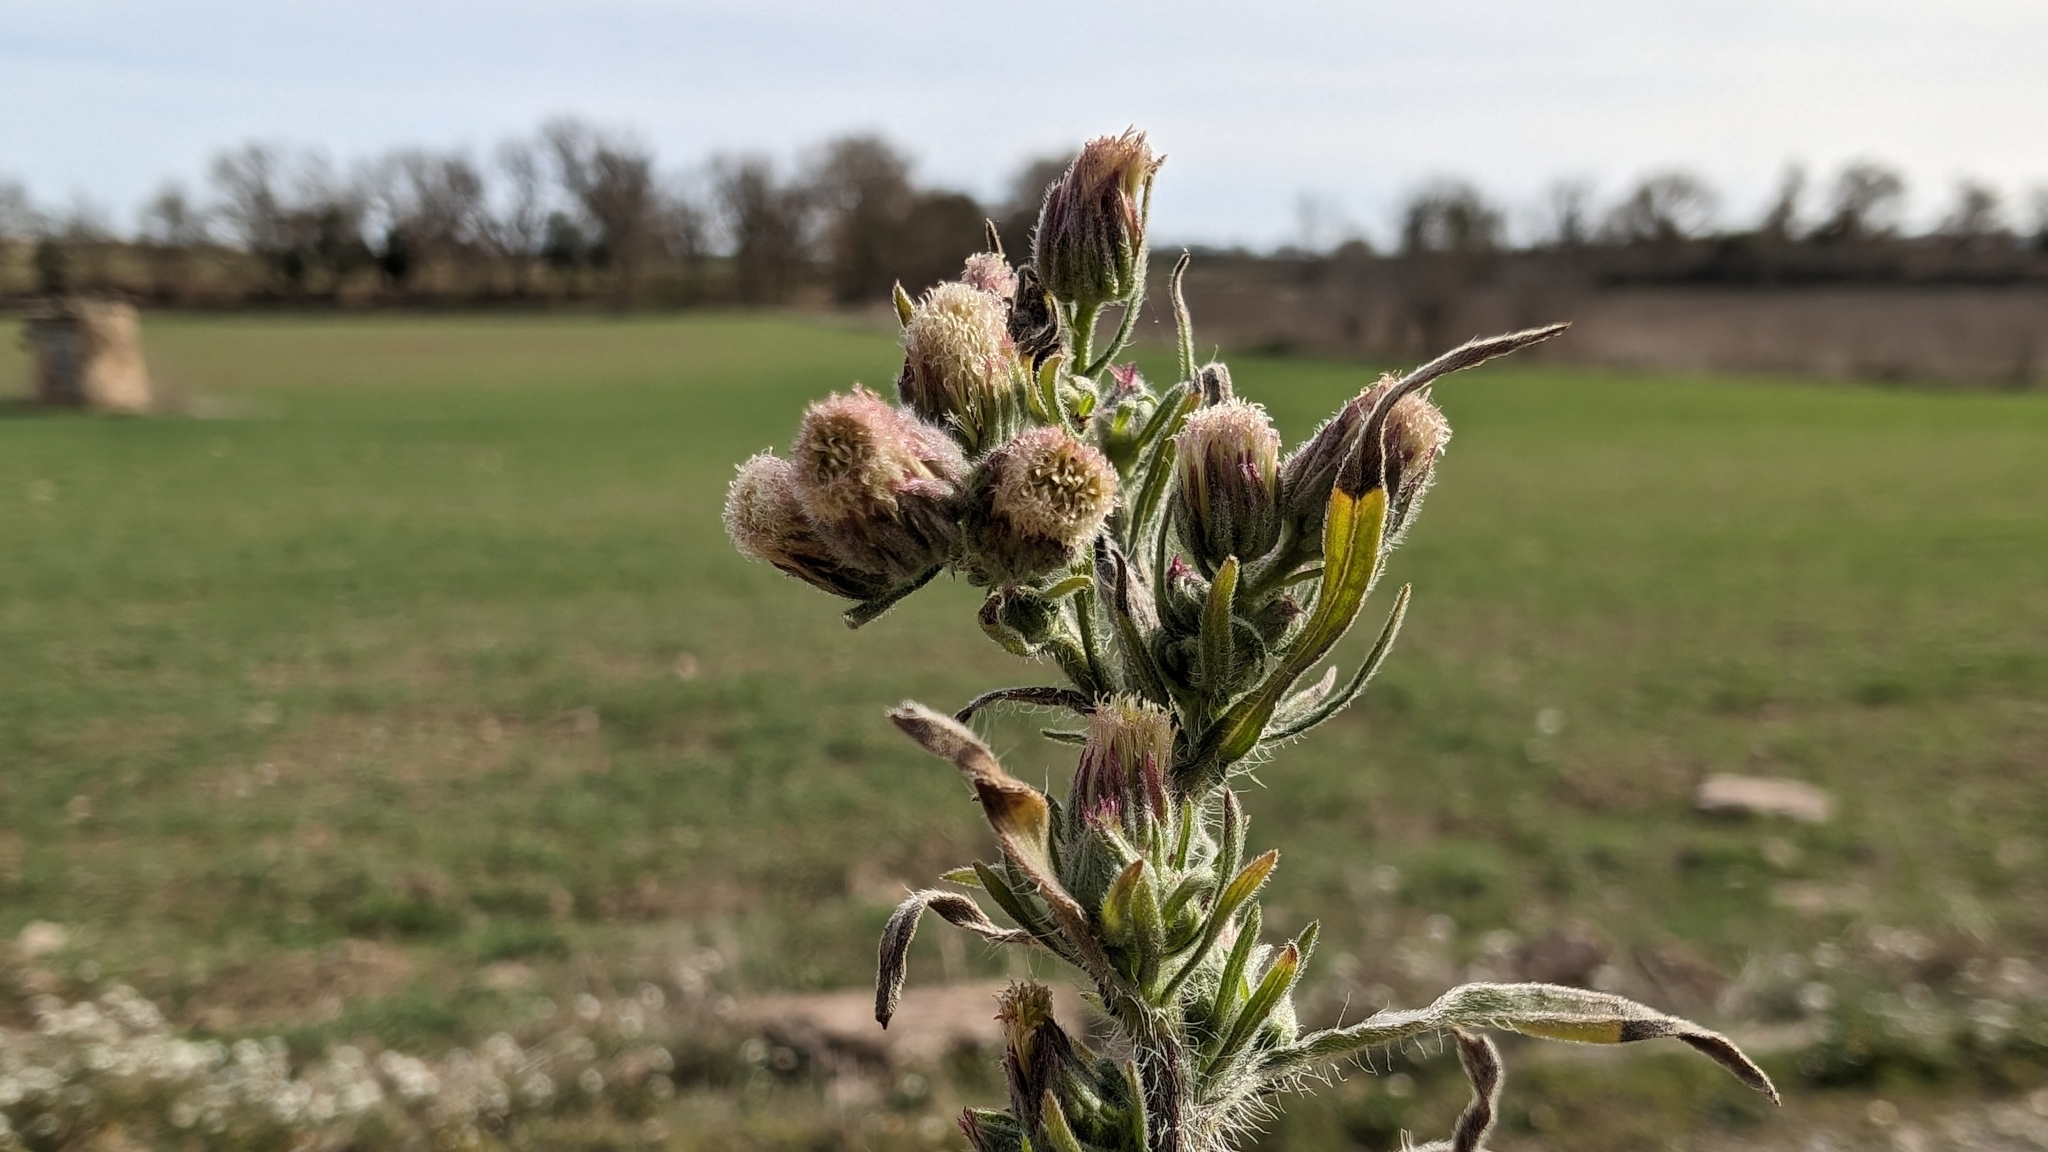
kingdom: Plantae
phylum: Tracheophyta
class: Magnoliopsida
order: Asterales
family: Asteraceae
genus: Erigeron
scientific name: Erigeron bonariensis
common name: Argentine fleabane
